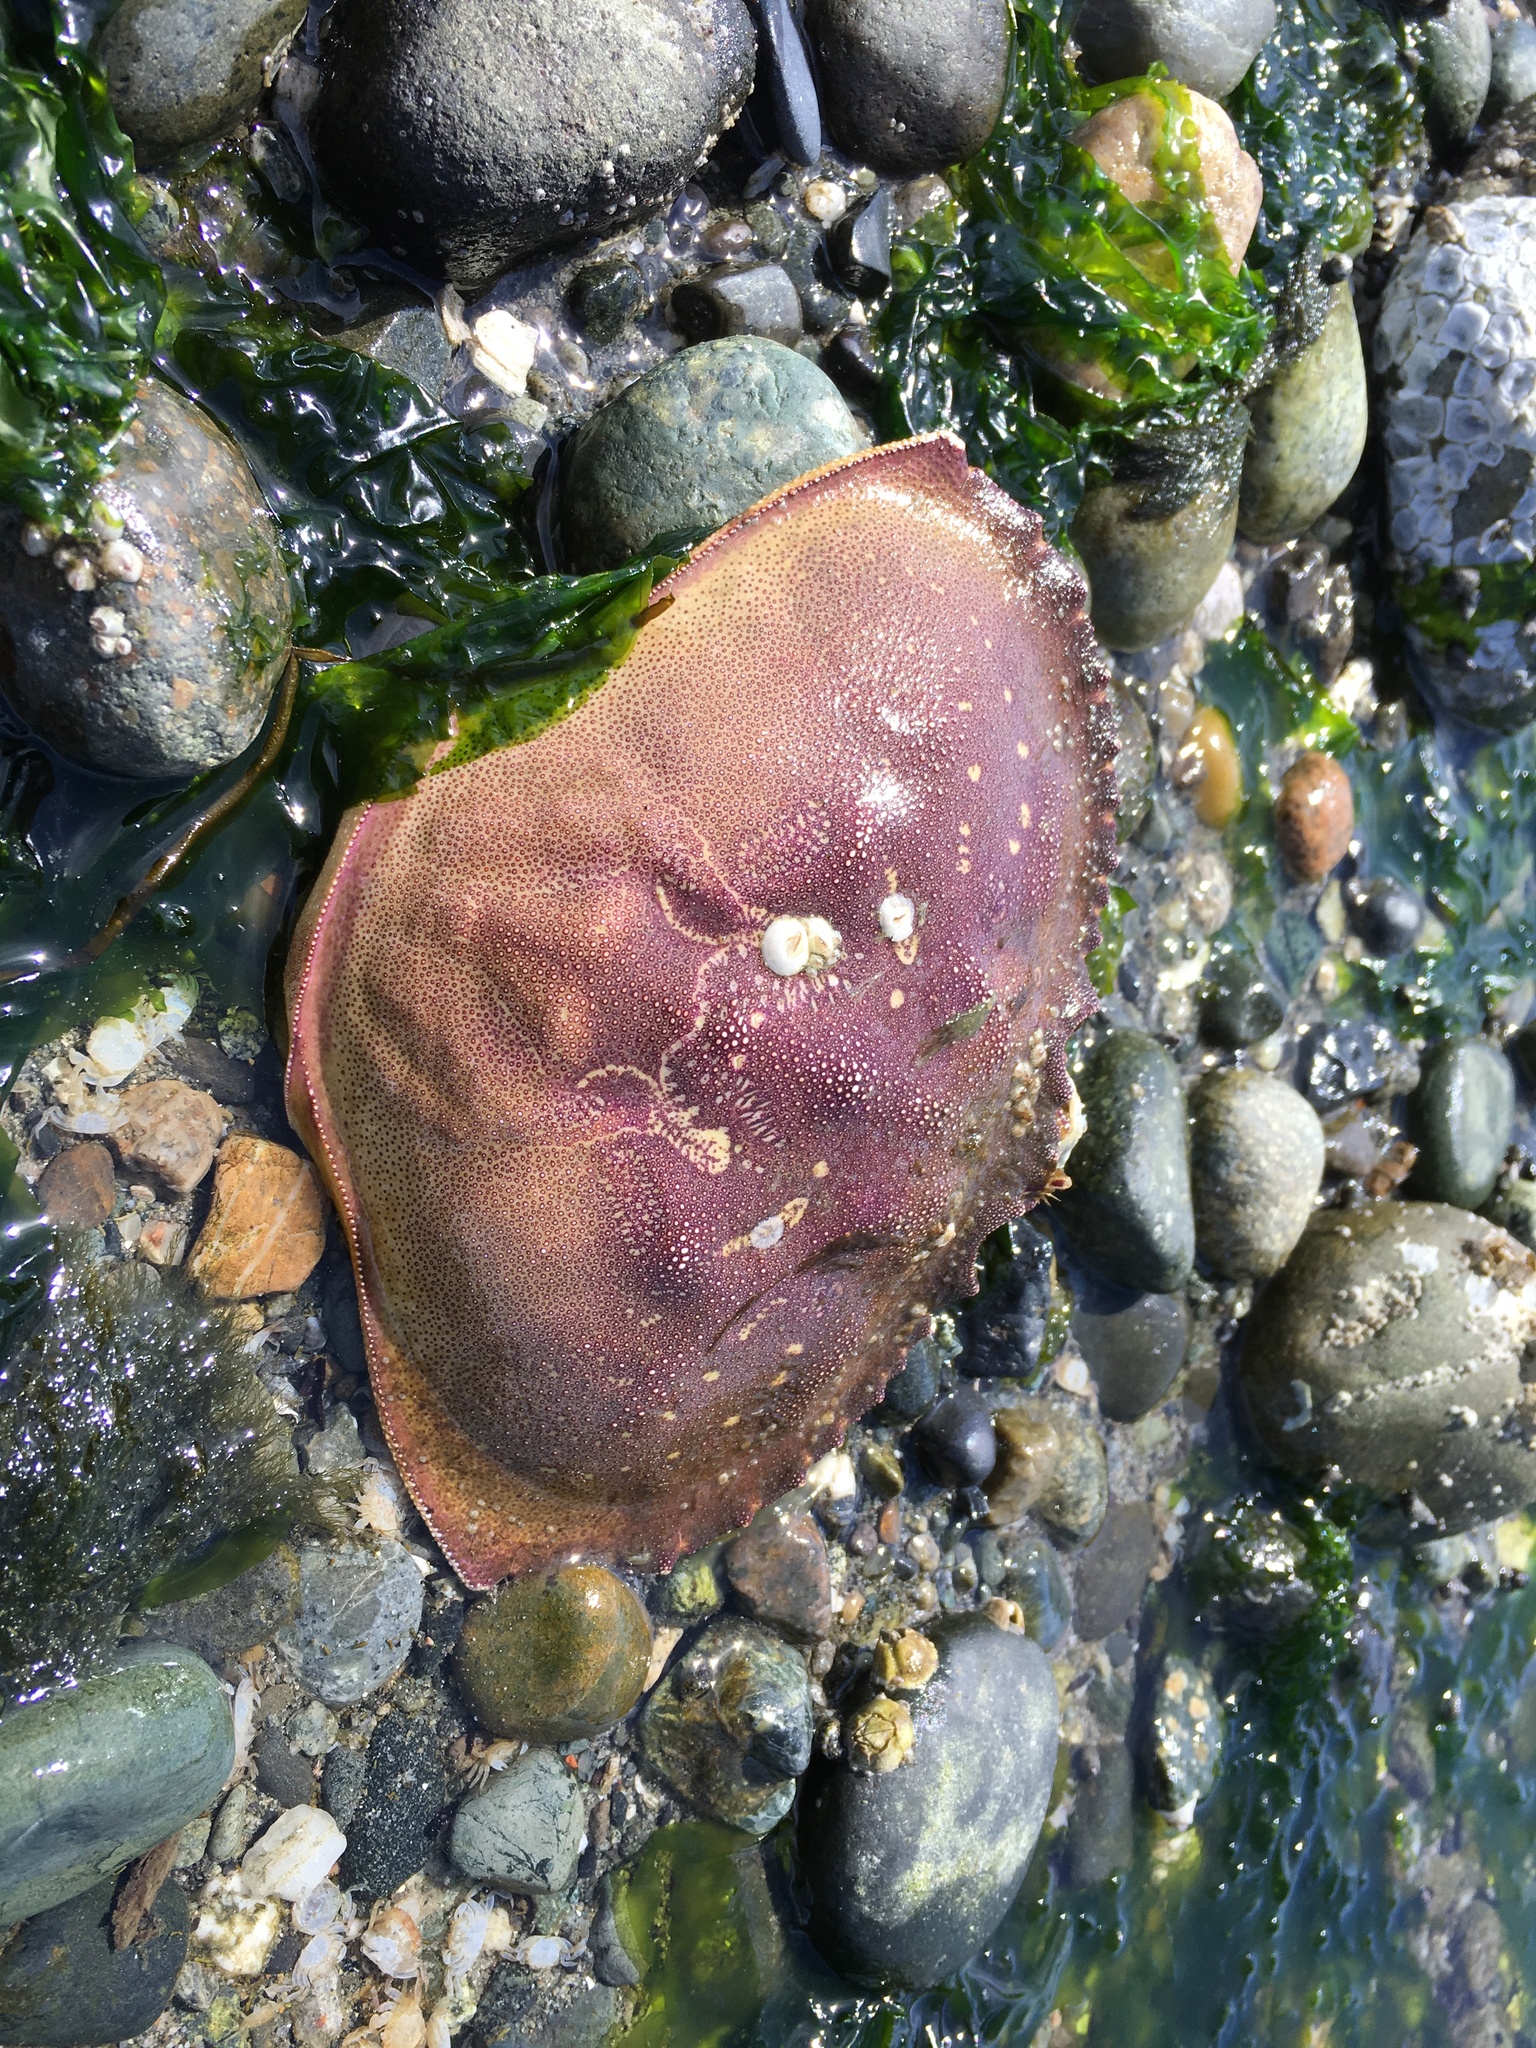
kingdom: Animalia
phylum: Arthropoda
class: Malacostraca
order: Decapoda
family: Cancridae
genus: Metacarcinus
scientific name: Metacarcinus magister
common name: Californian crab
